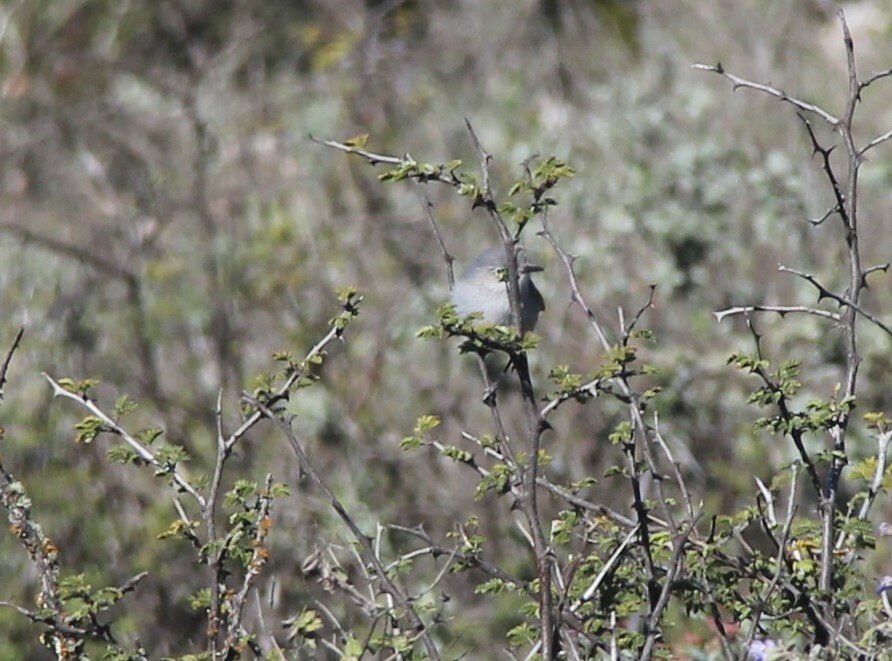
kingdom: Animalia
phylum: Chordata
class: Aves
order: Passeriformes
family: Polioptilidae
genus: Polioptila
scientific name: Polioptila caerulea
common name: Blue-gray gnatcatcher
